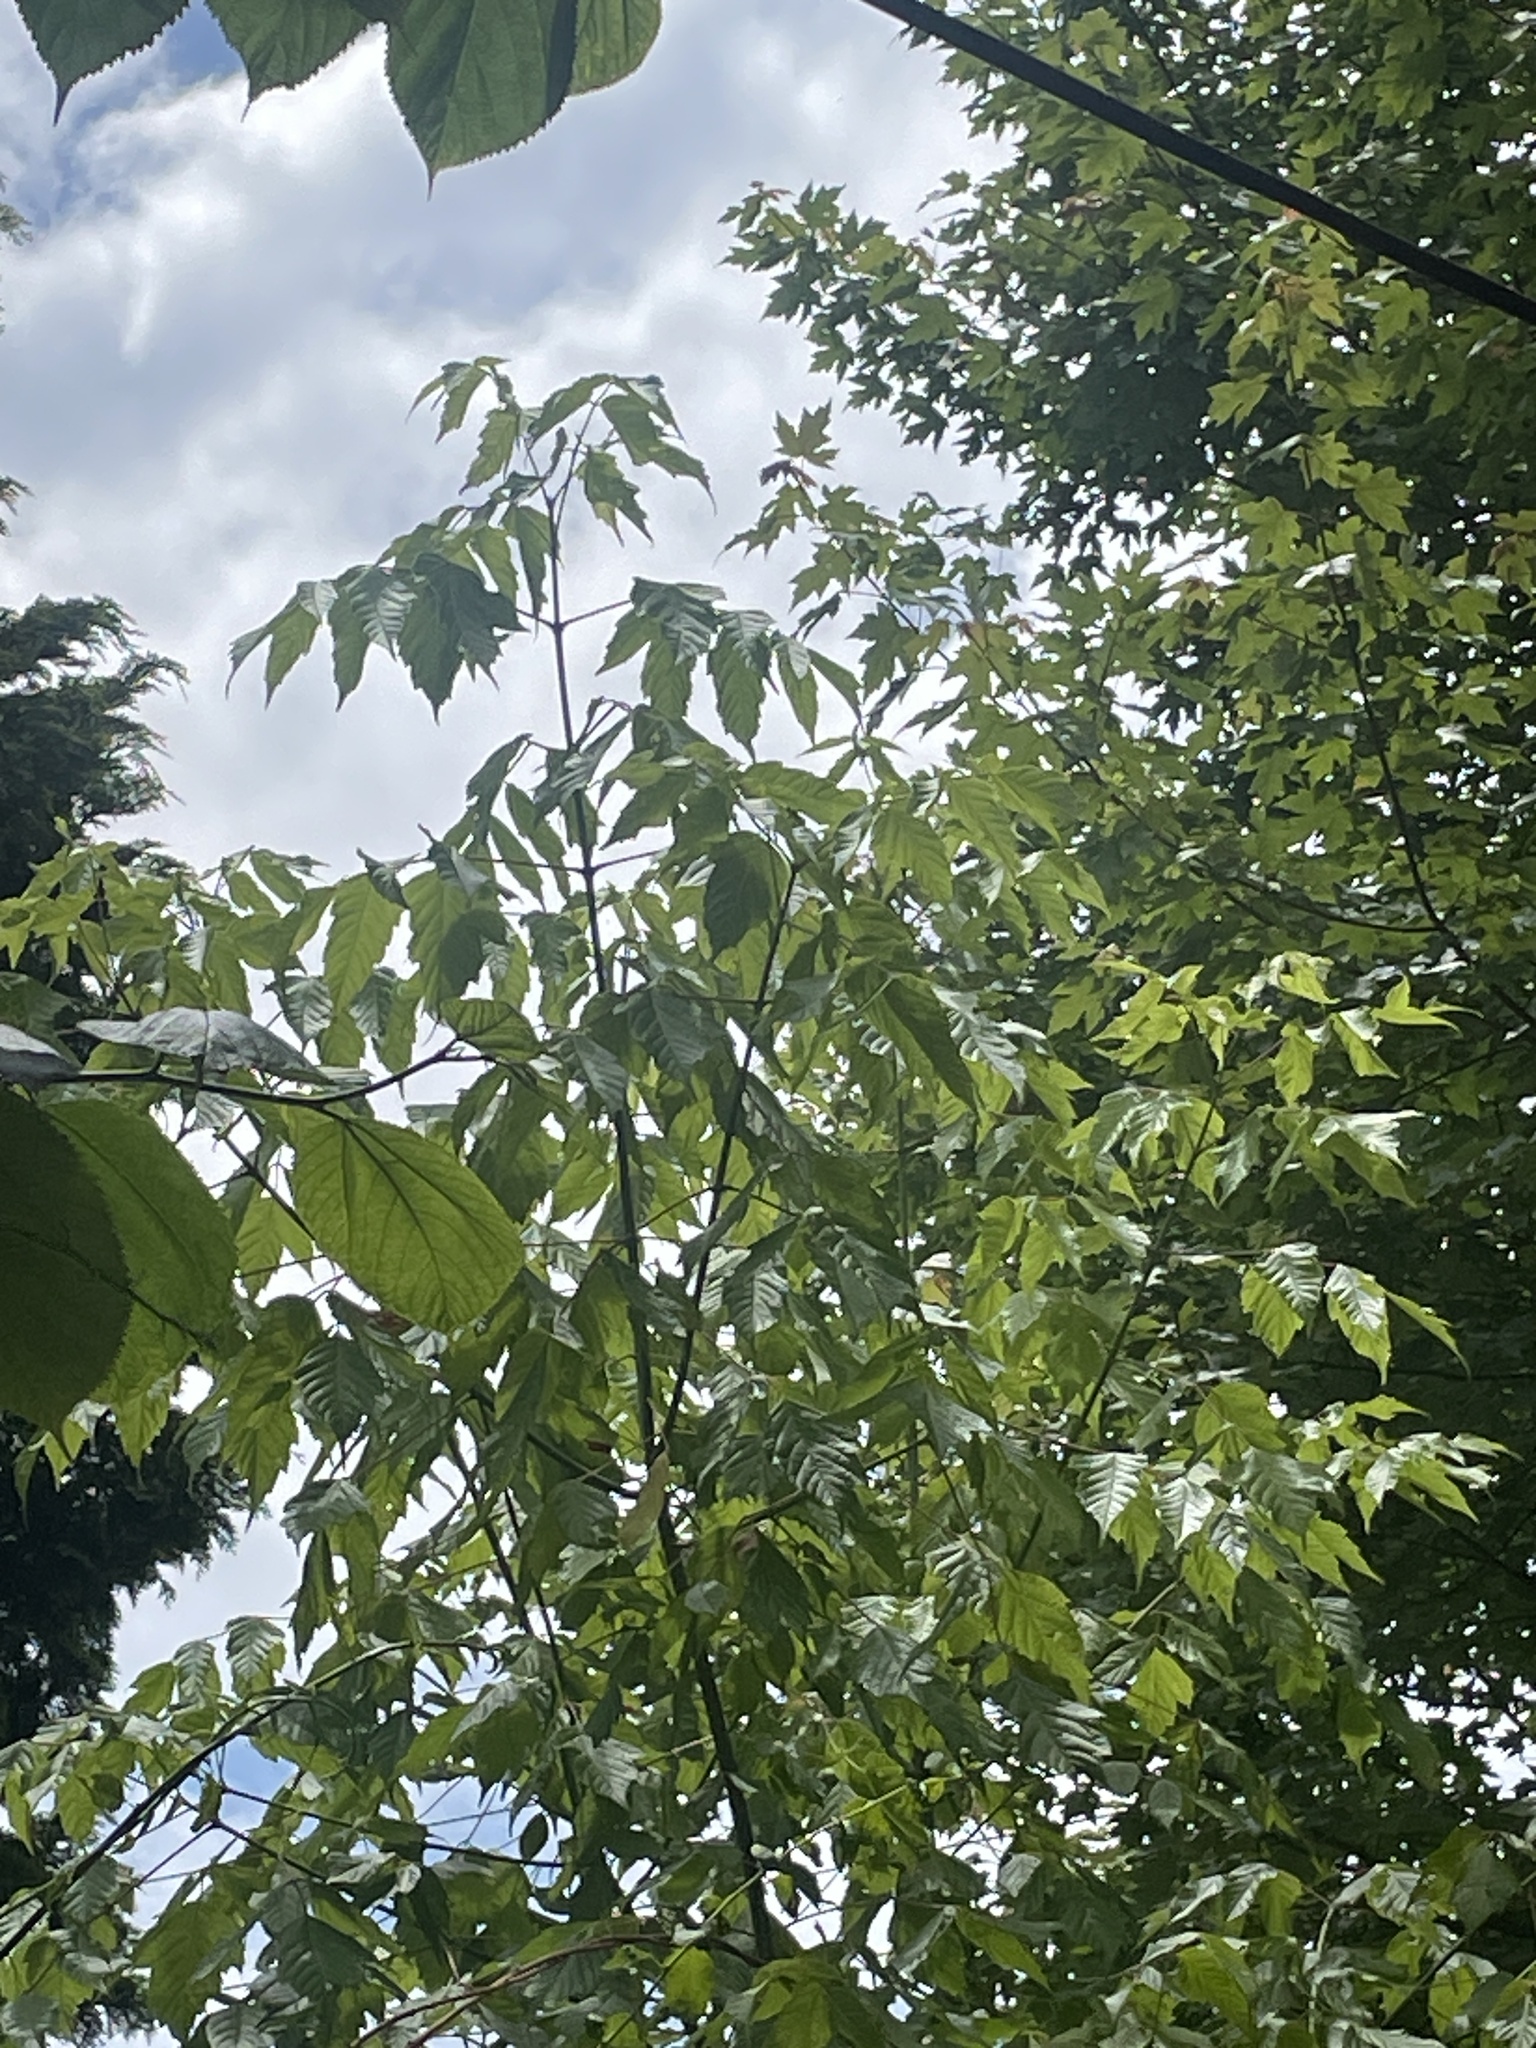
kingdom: Plantae
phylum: Tracheophyta
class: Magnoliopsida
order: Sapindales
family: Sapindaceae
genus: Acer
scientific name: Acer negundo
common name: Ashleaf maple
